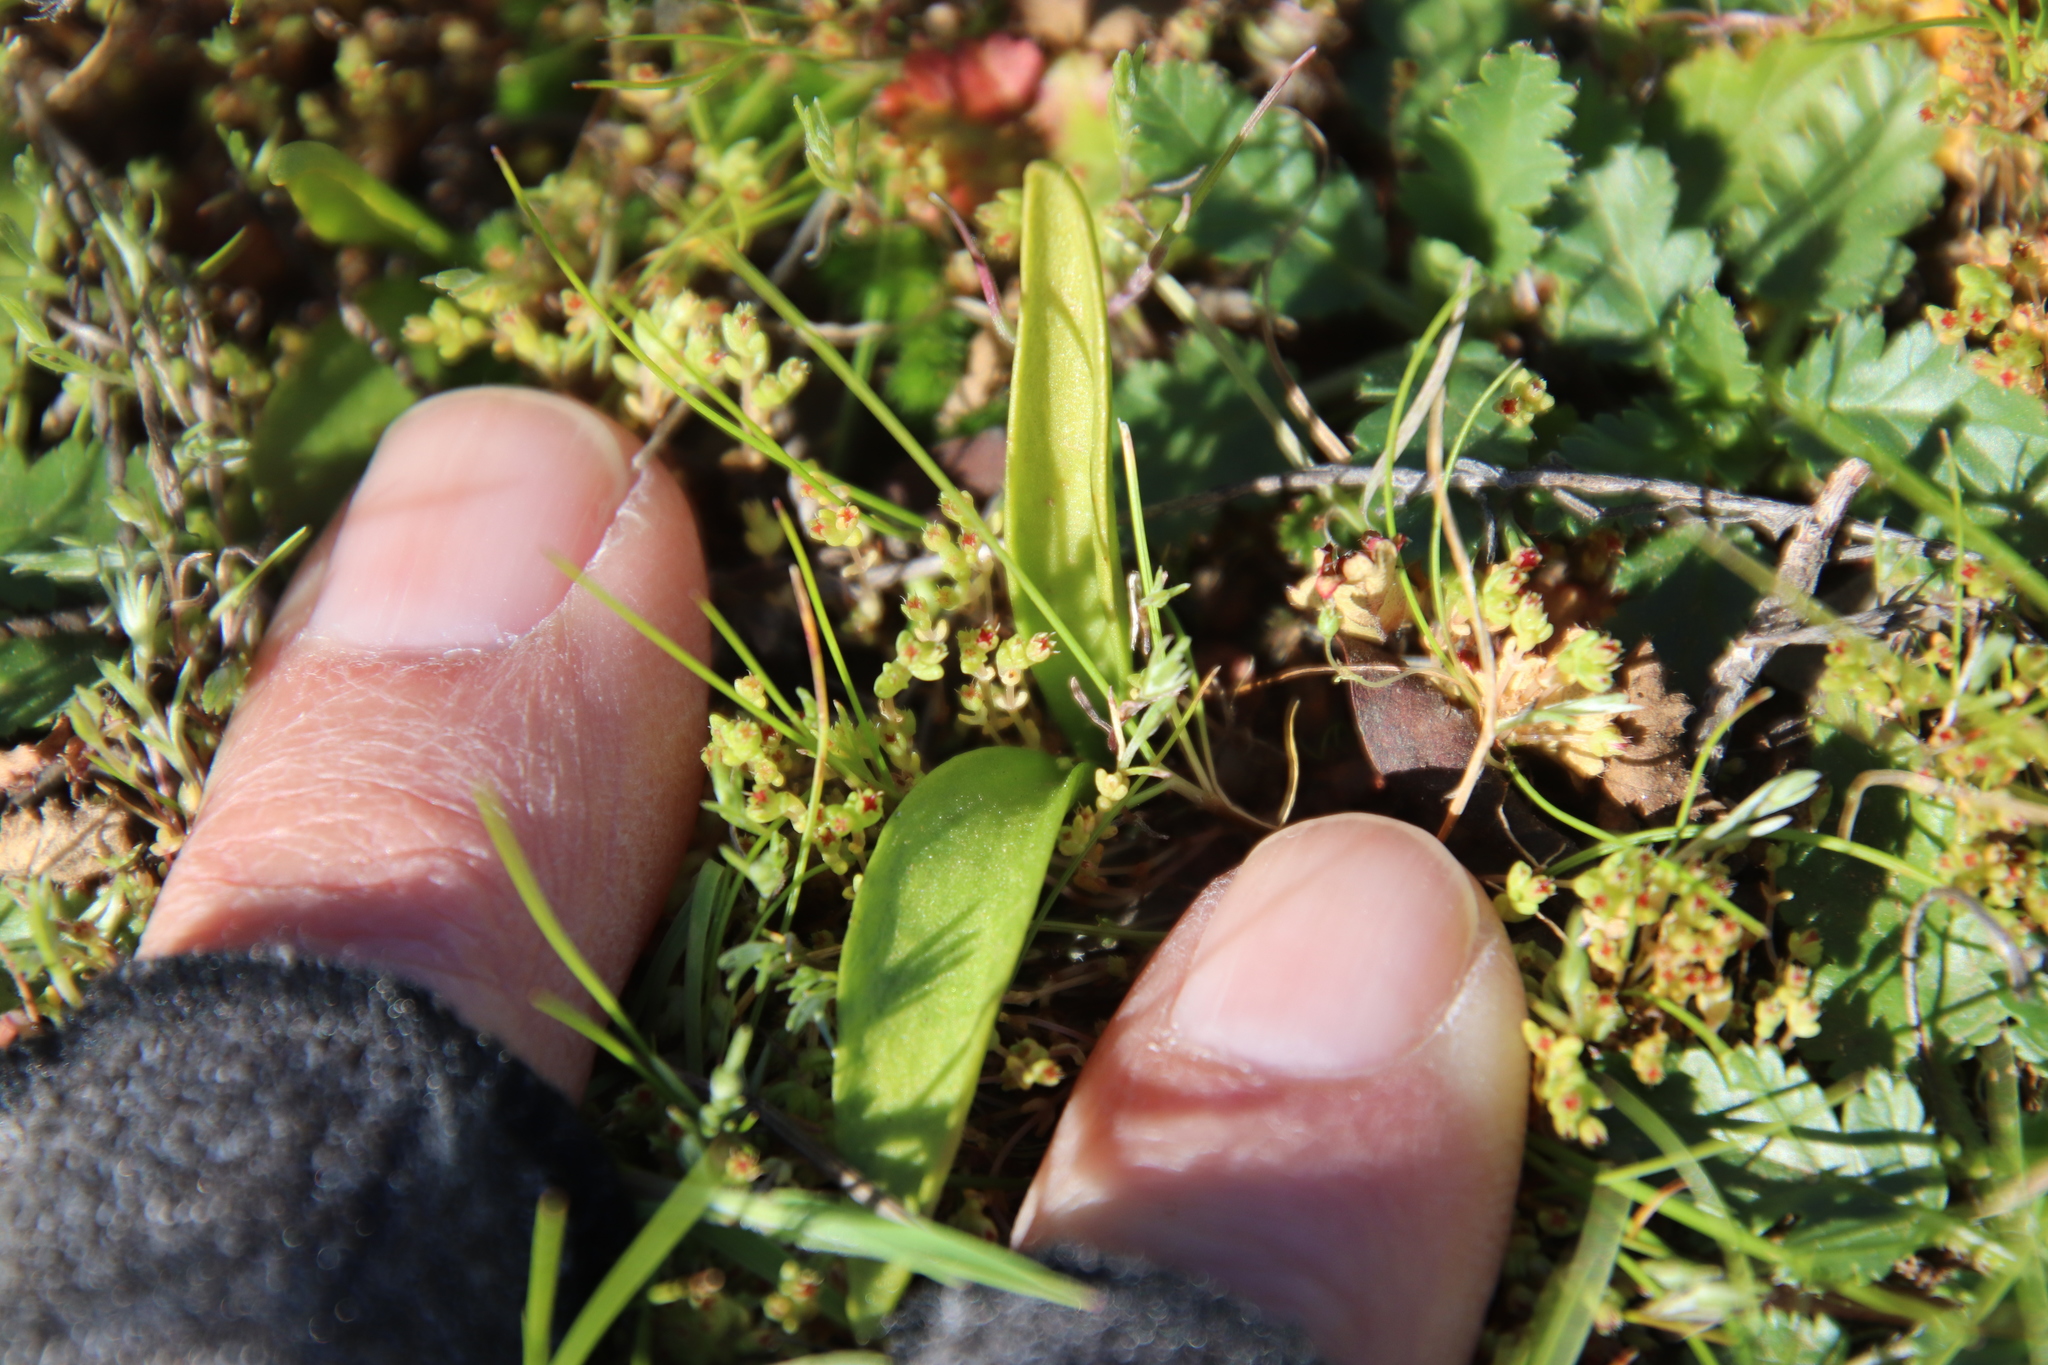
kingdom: Plantae
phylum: Tracheophyta
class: Polypodiopsida
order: Ophioglossales
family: Ophioglossaceae
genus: Ophioglossum
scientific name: Ophioglossum californicum
